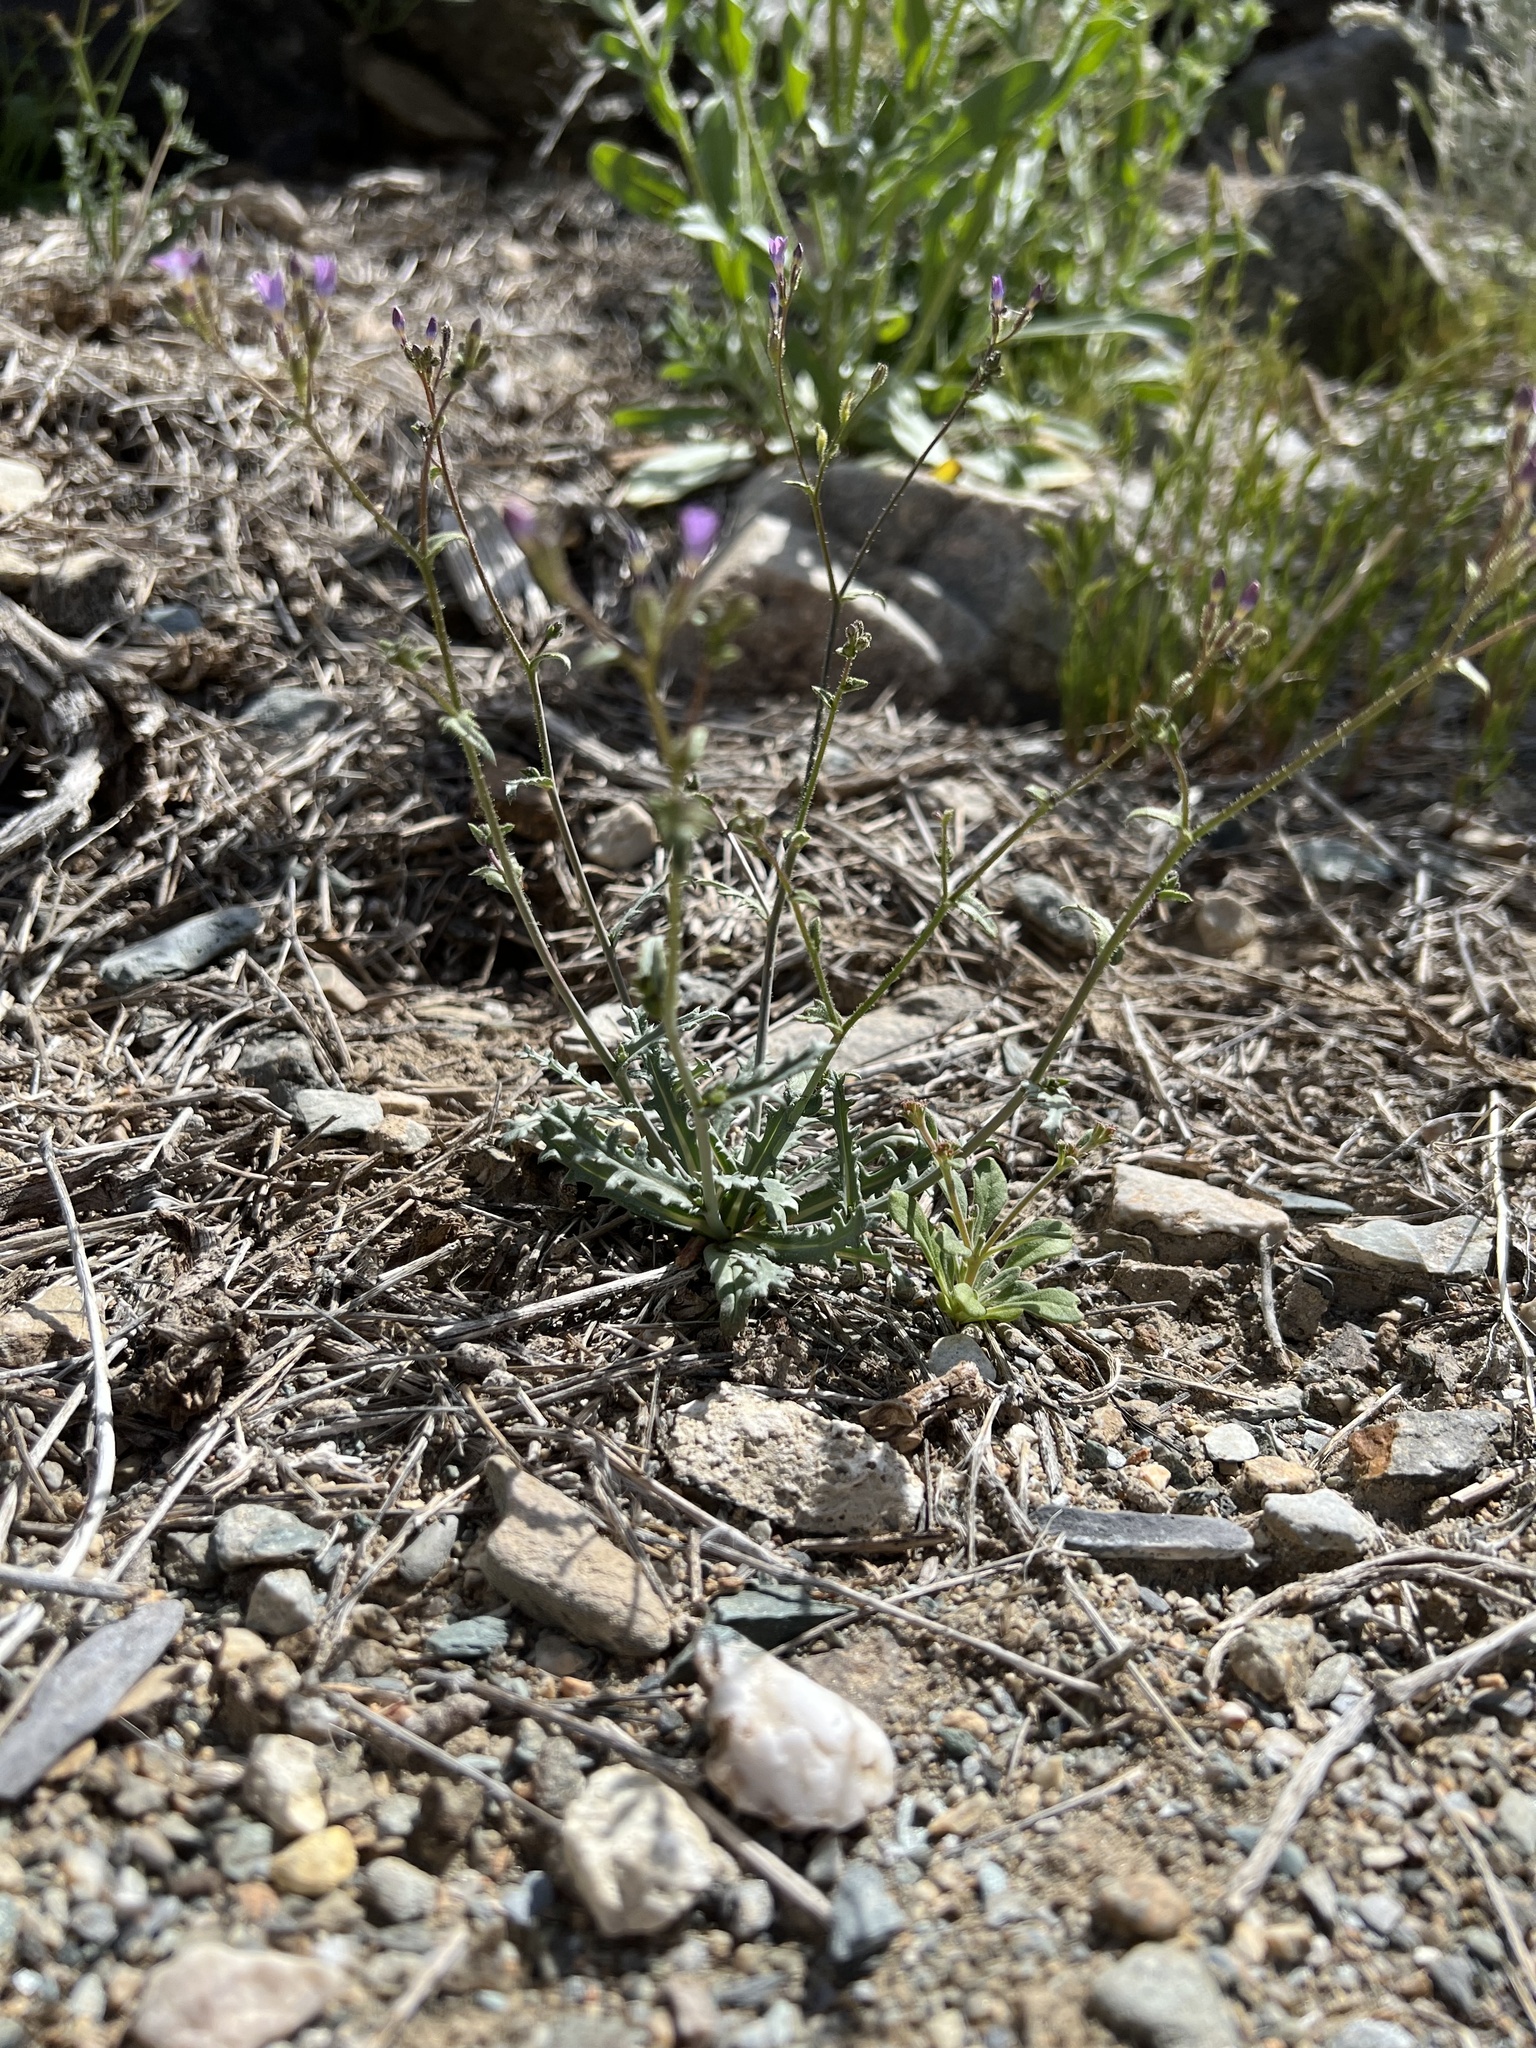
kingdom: Plantae
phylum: Tracheophyta
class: Magnoliopsida
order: Ericales
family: Polemoniaceae
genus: Gilia
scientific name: Gilia sinuata
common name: Rosy gilia
